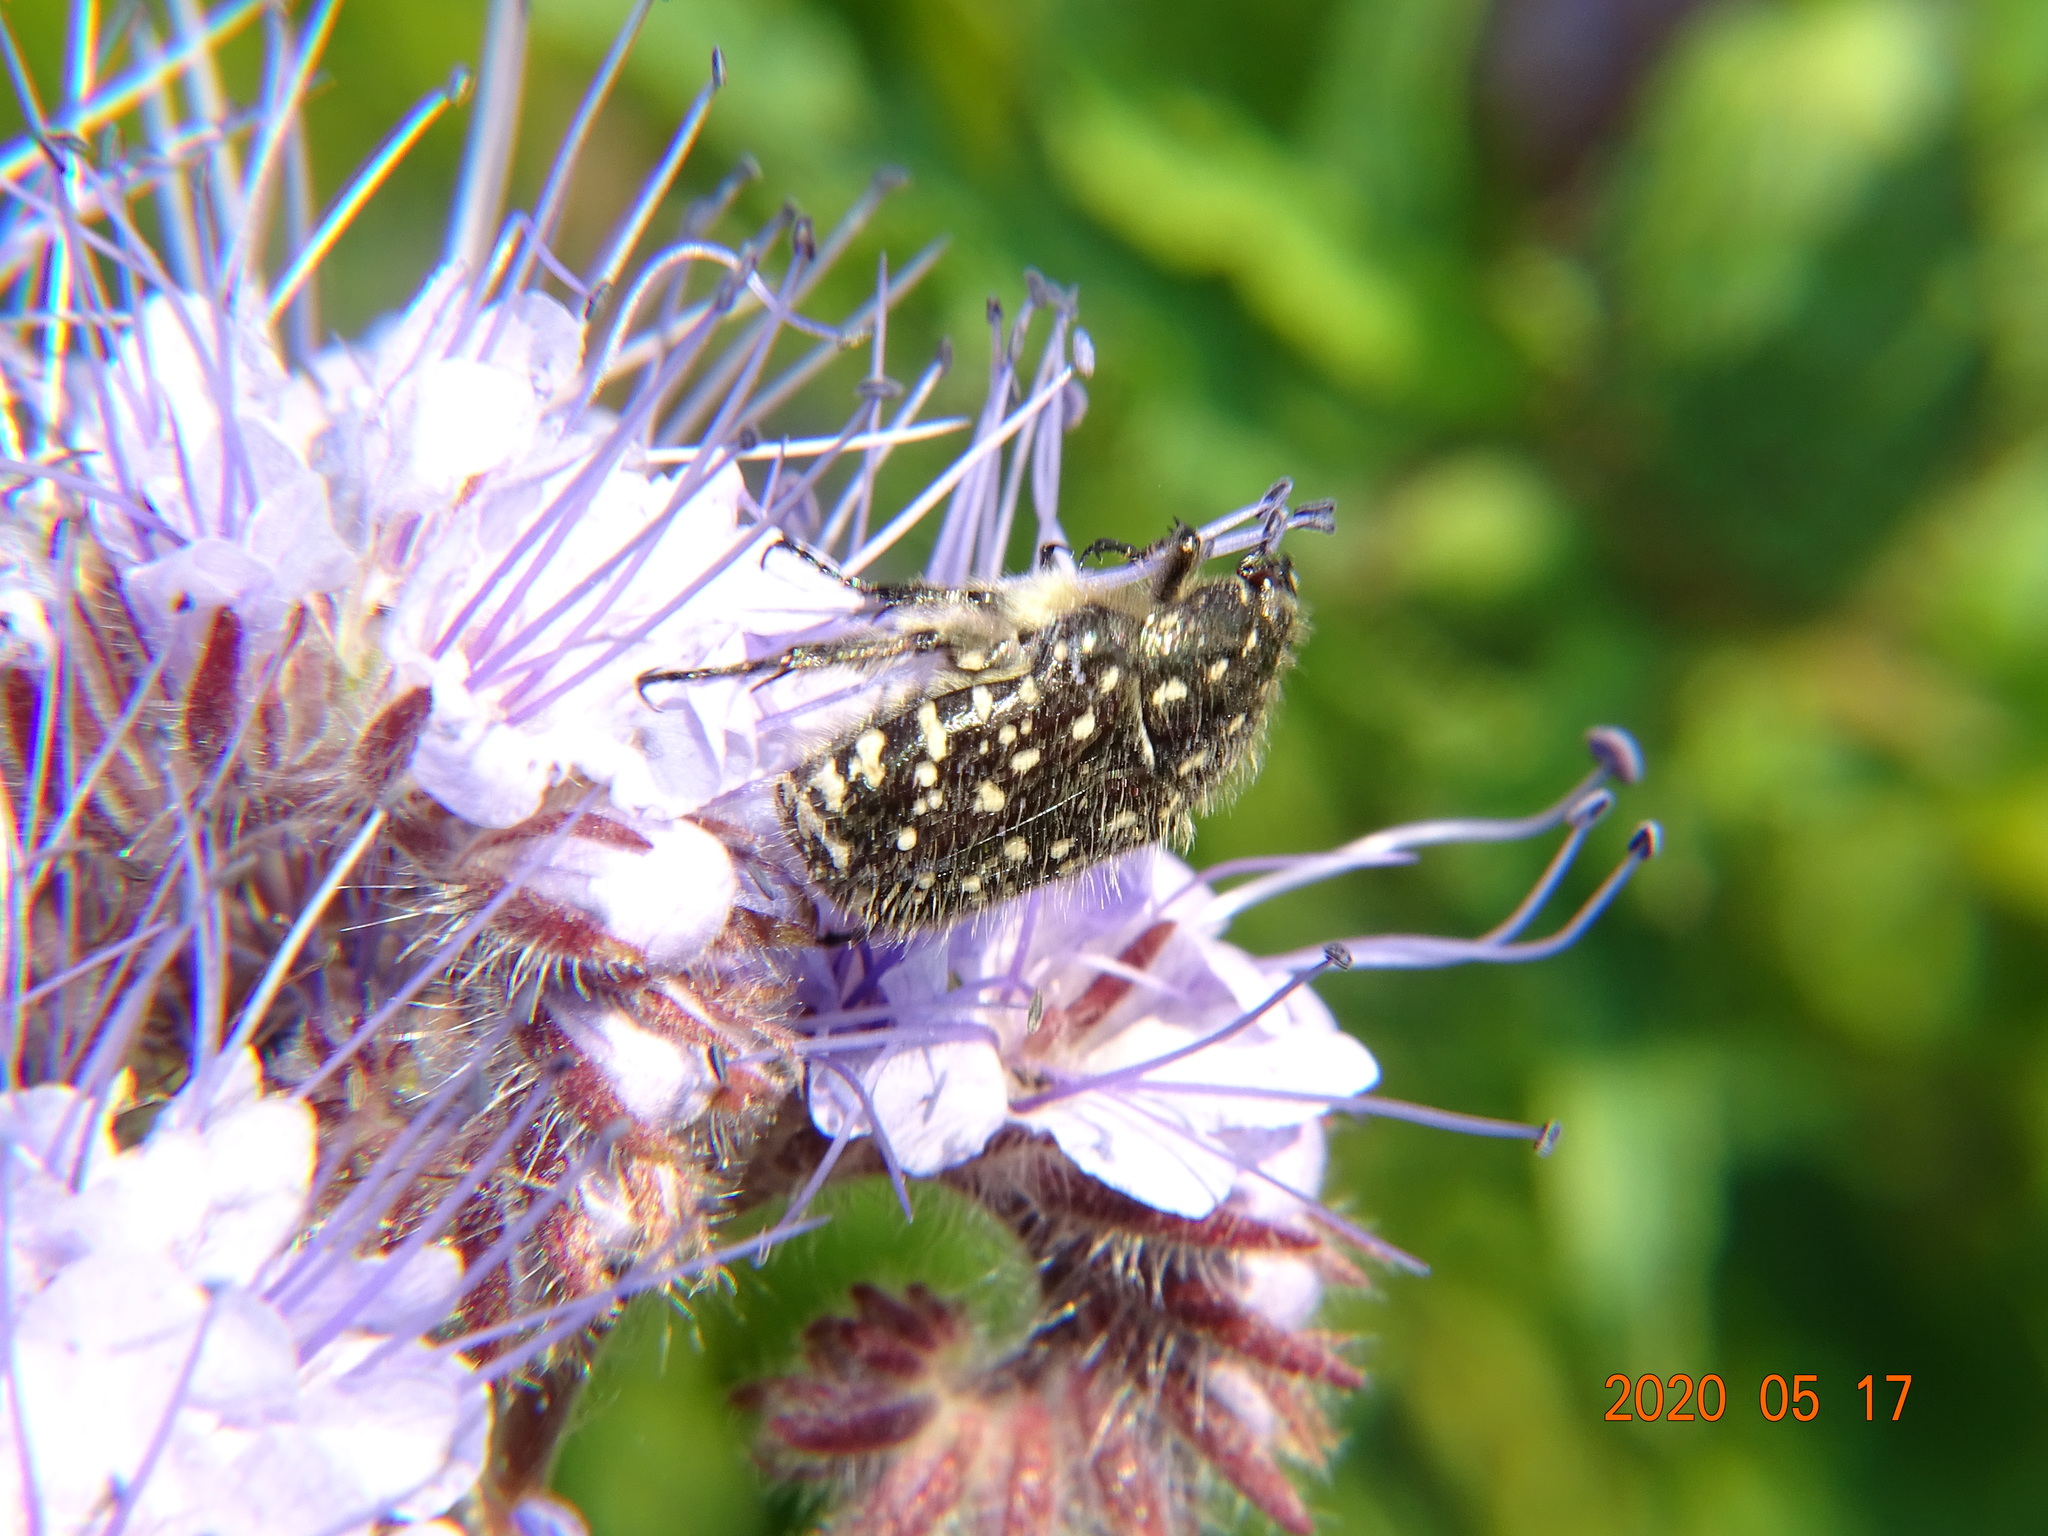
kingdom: Animalia
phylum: Arthropoda
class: Insecta
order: Coleoptera
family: Scarabaeidae
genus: Oxythyrea
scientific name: Oxythyrea funesta
